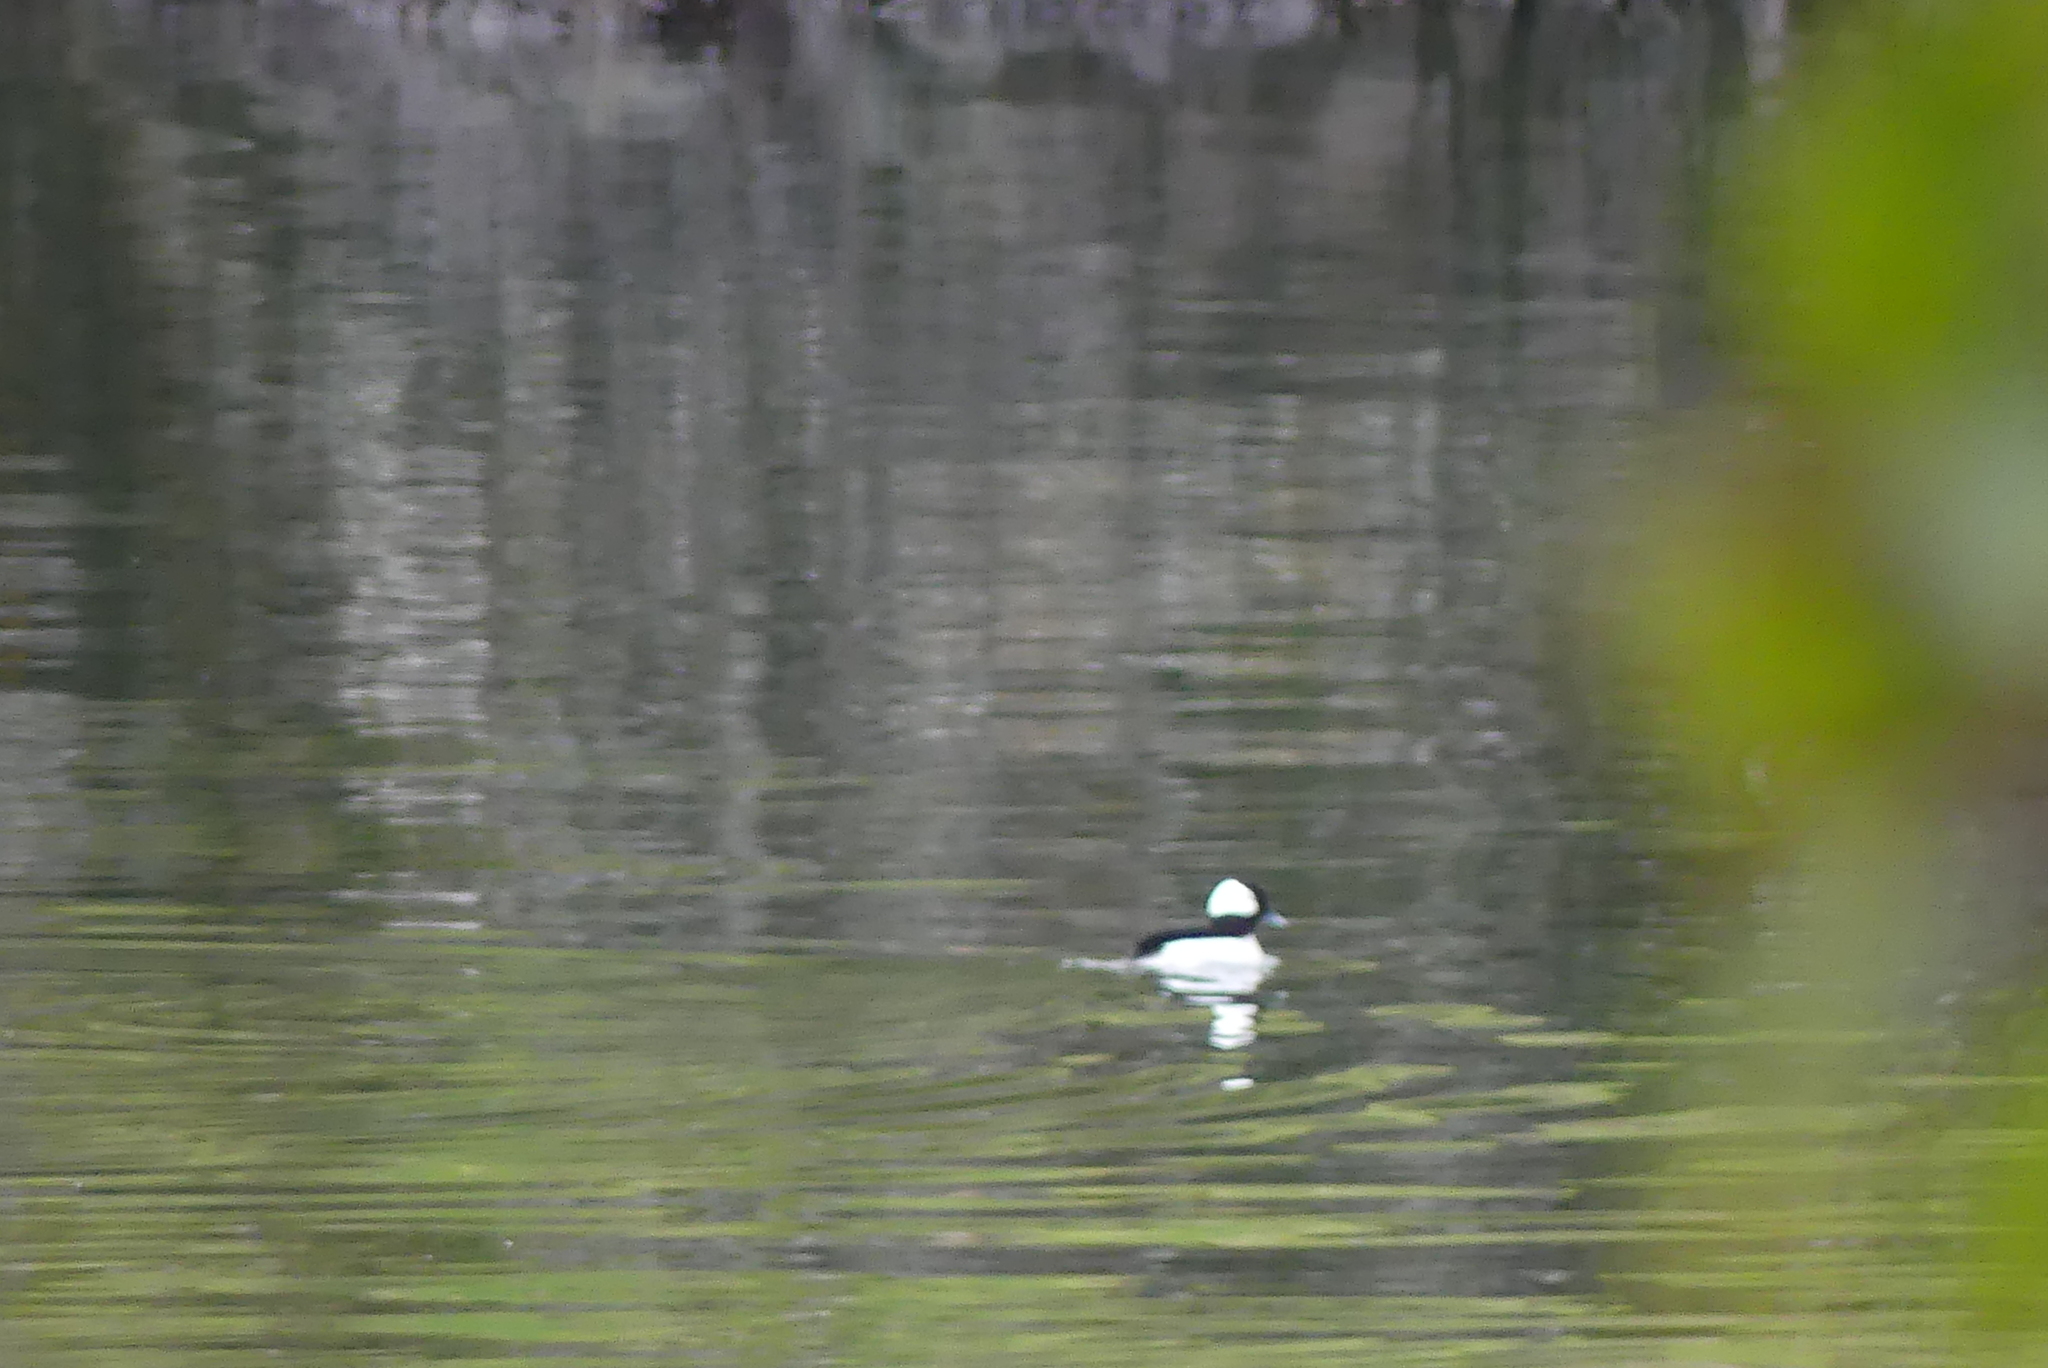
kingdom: Animalia
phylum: Chordata
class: Aves
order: Anseriformes
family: Anatidae
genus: Bucephala
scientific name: Bucephala albeola
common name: Bufflehead
